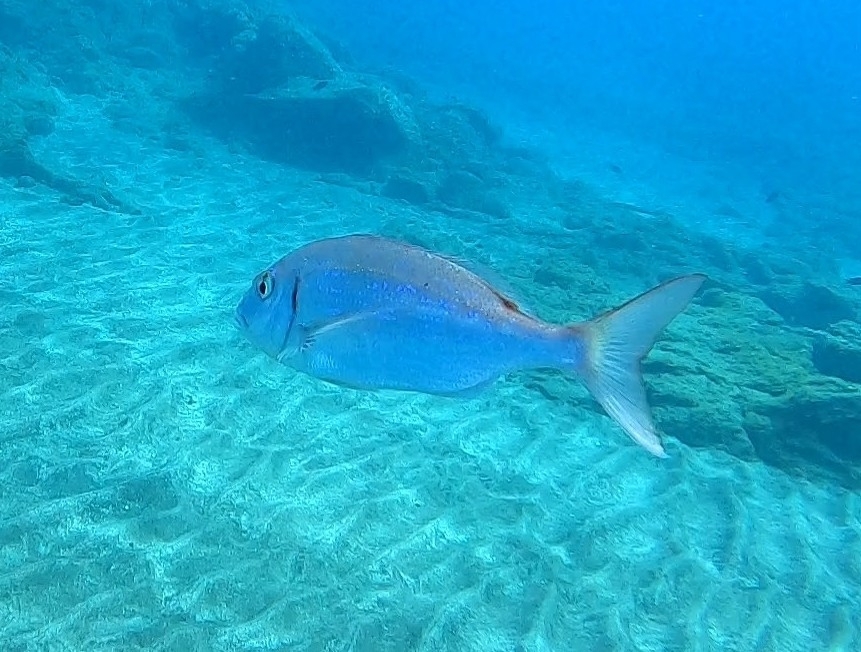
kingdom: Animalia
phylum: Chordata
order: Perciformes
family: Sparidae
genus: Pagellus
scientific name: Pagellus erythrinus
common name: Pandora
